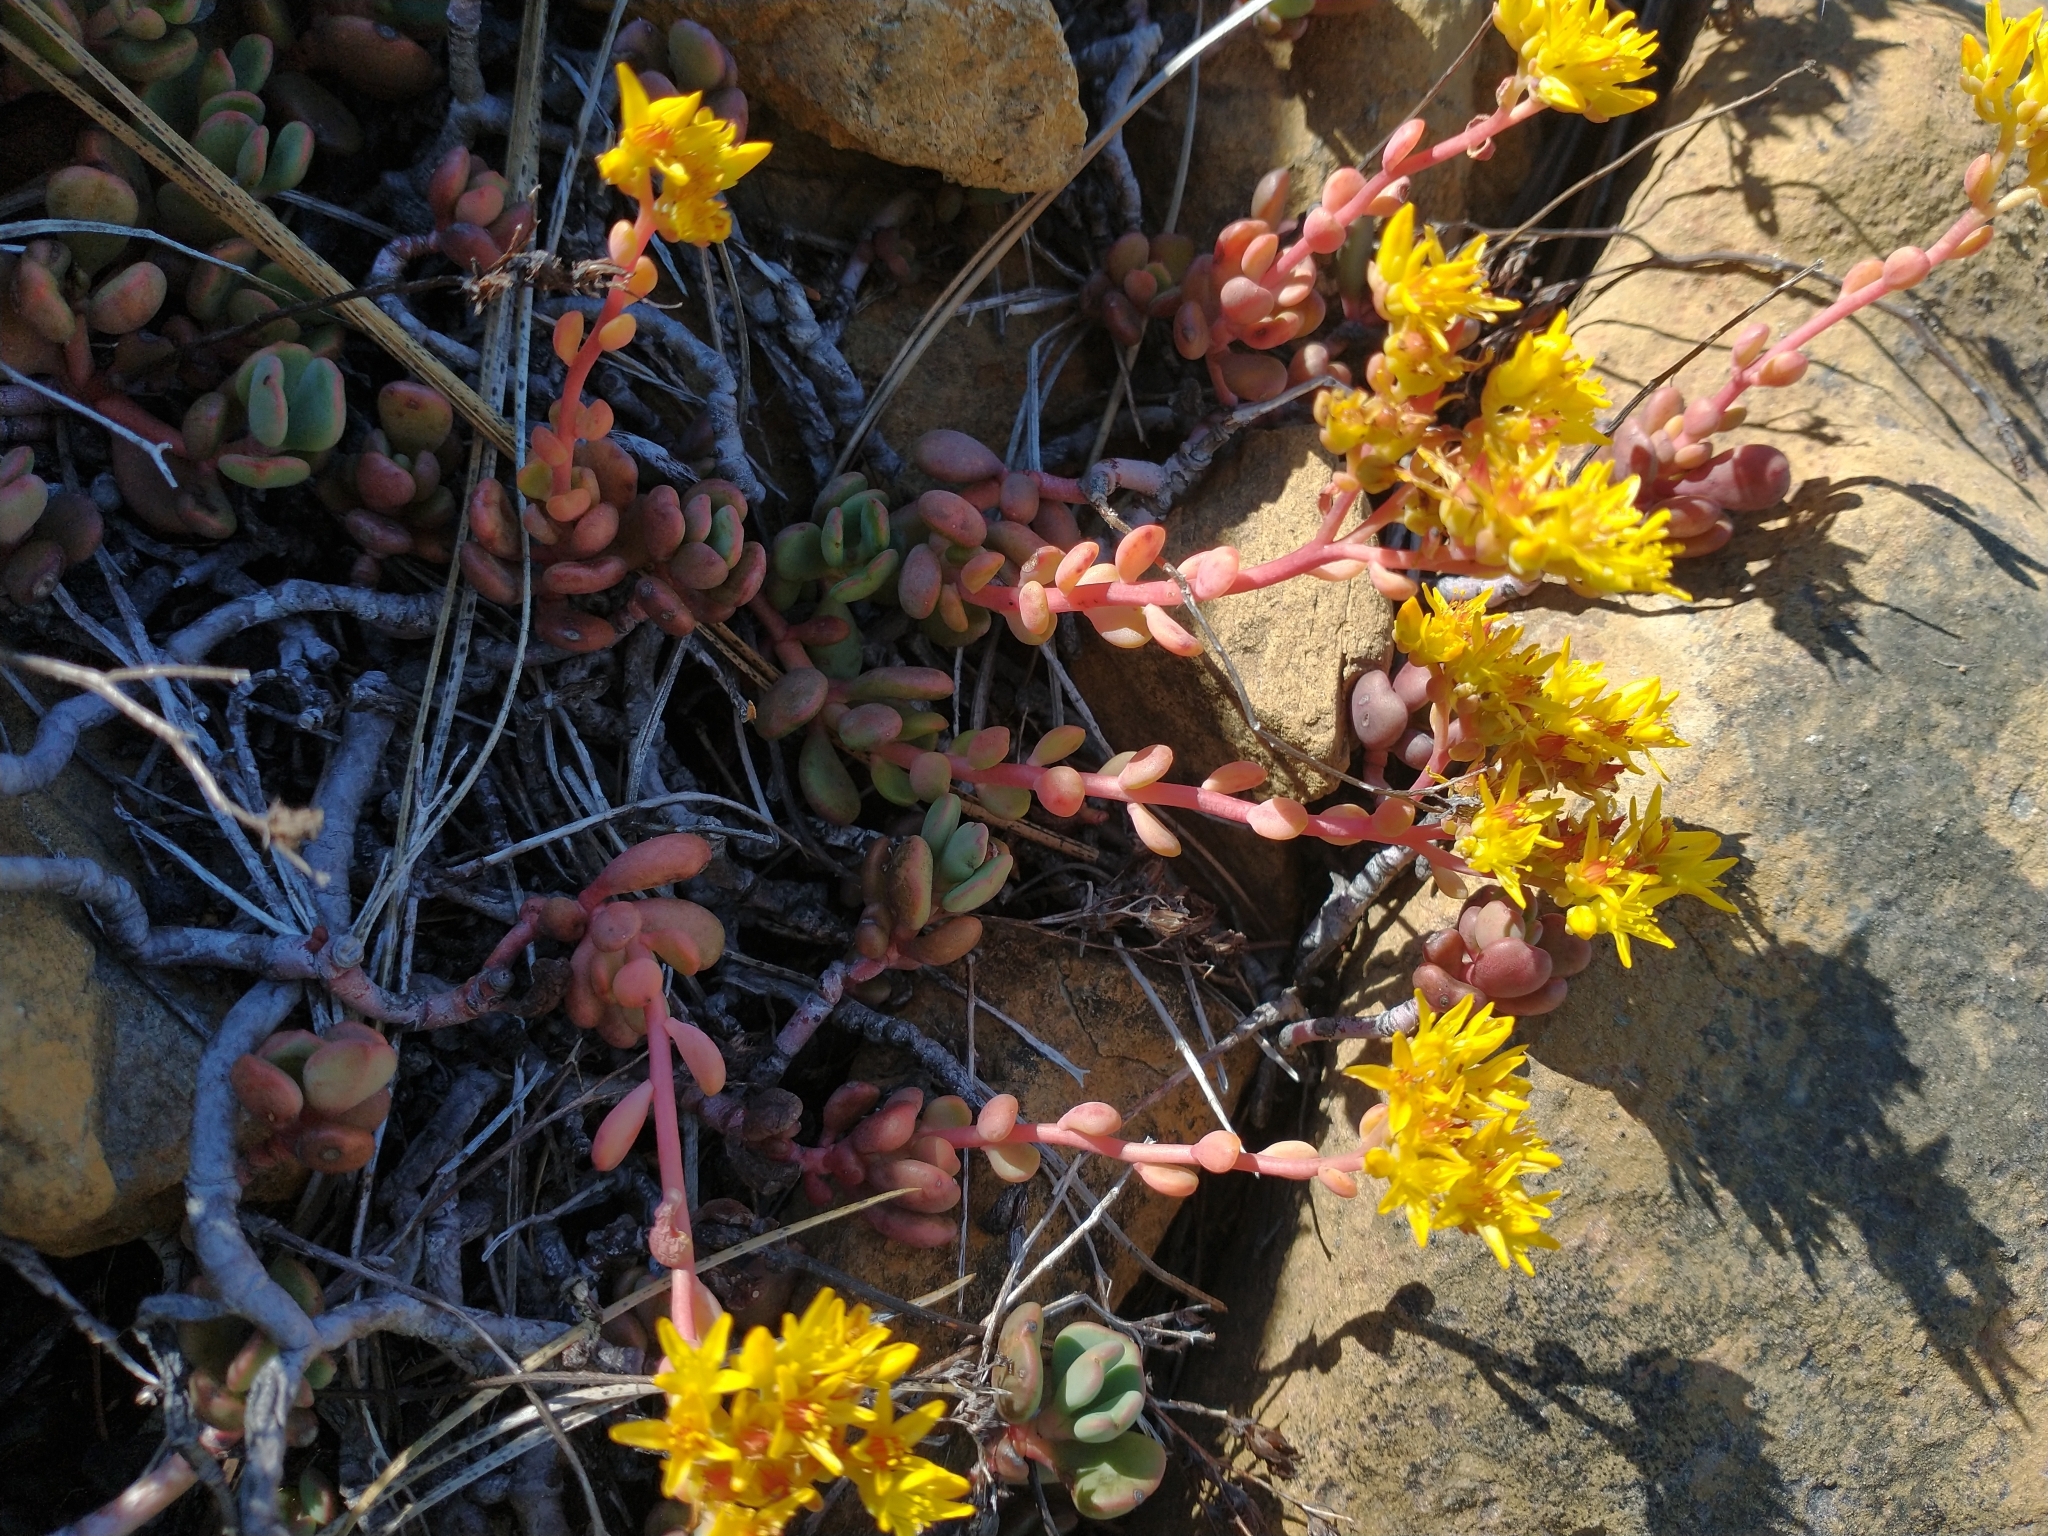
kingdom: Plantae
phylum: Tracheophyta
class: Magnoliopsida
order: Saxifragales
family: Crassulaceae
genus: Sedum
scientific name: Sedum citrinum
